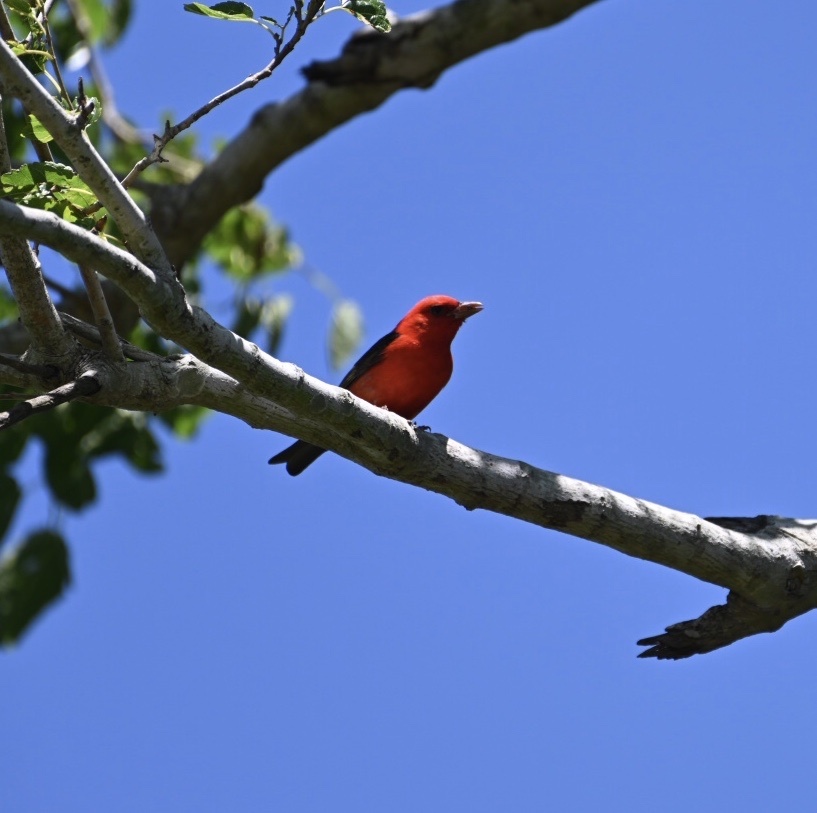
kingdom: Animalia
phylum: Chordata
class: Aves
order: Passeriformes
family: Cardinalidae
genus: Piranga
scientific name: Piranga olivacea
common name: Scarlet tanager
